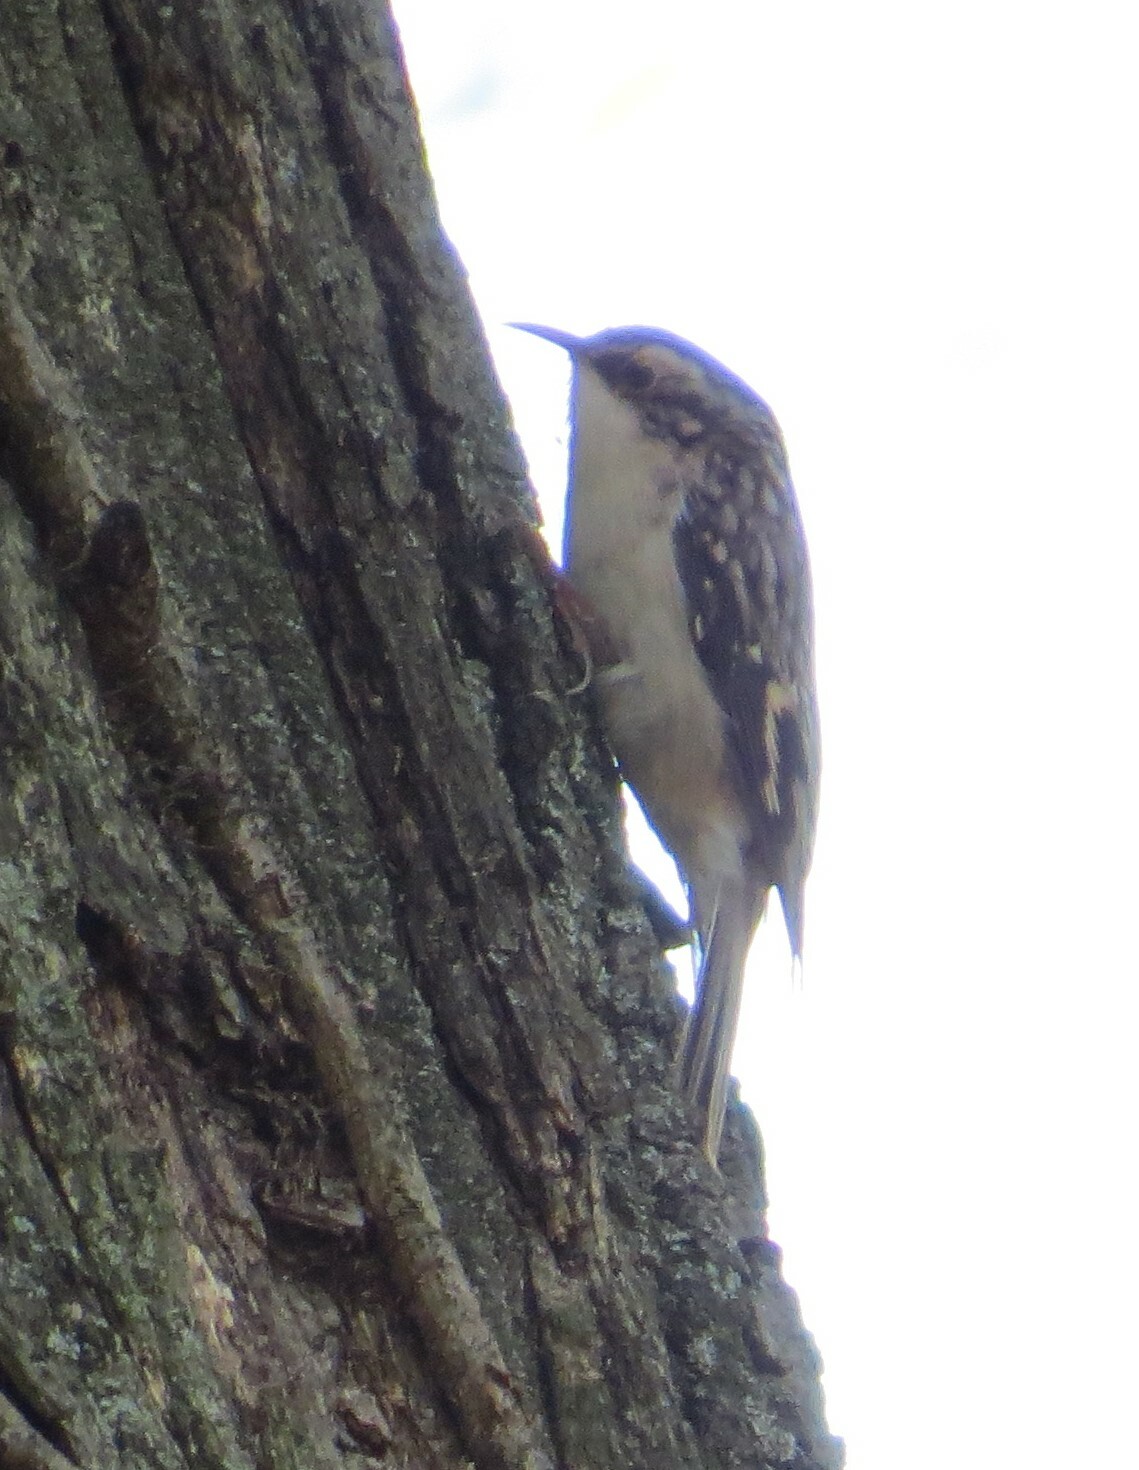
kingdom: Animalia
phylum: Chordata
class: Aves
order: Passeriformes
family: Certhiidae
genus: Certhia
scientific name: Certhia americana
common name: Brown creeper
